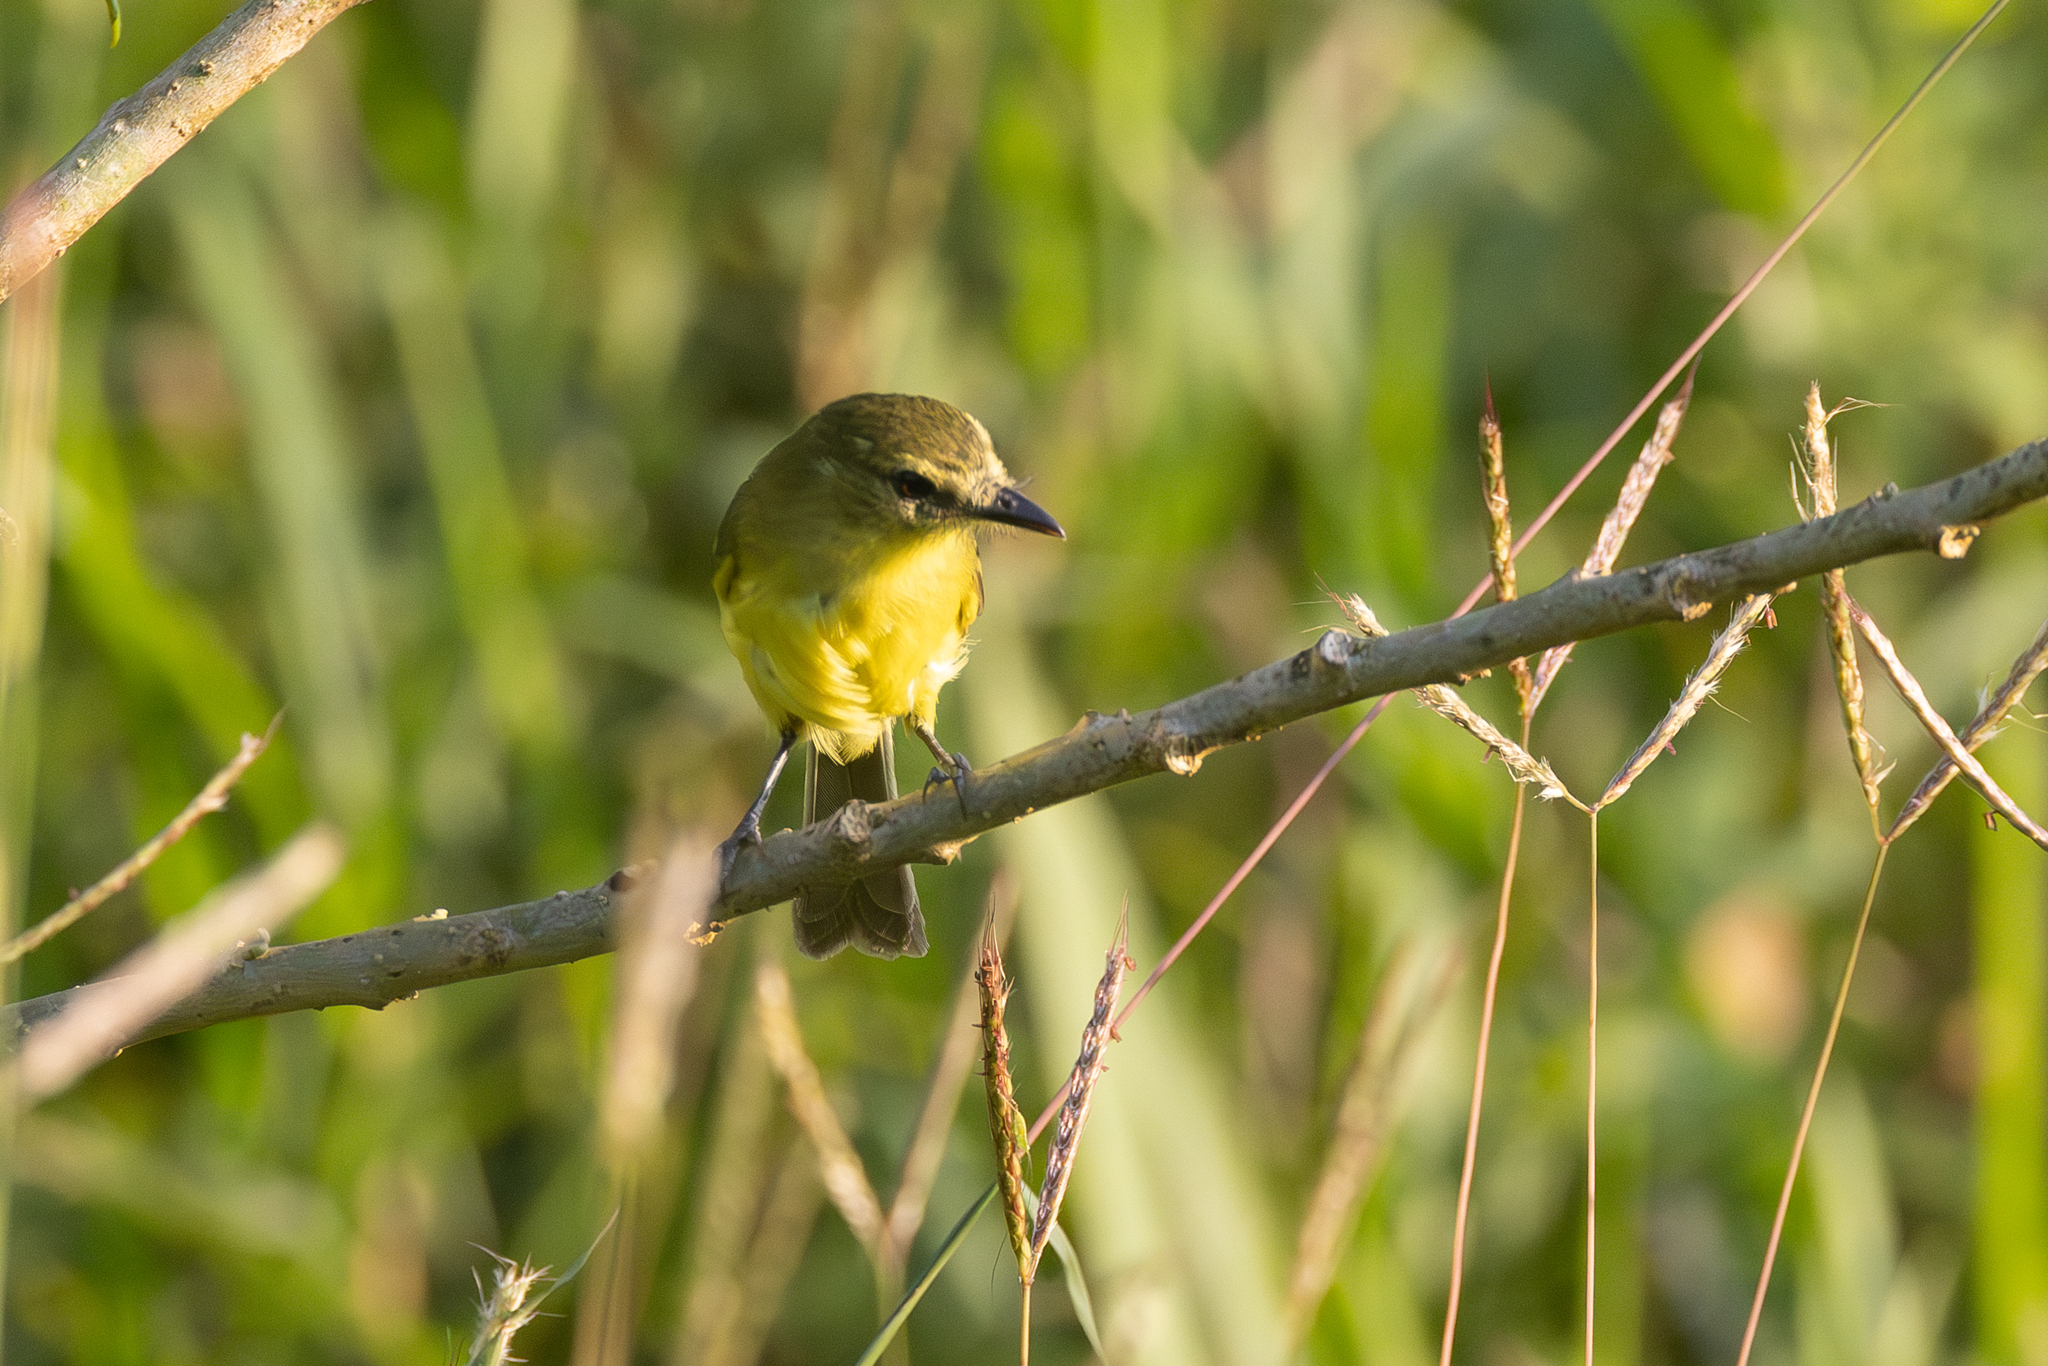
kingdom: Animalia
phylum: Chordata
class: Aves
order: Passeriformes
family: Tyrannidae
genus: Capsiempis
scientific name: Capsiempis flaveola
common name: Yellow tyrannulet
